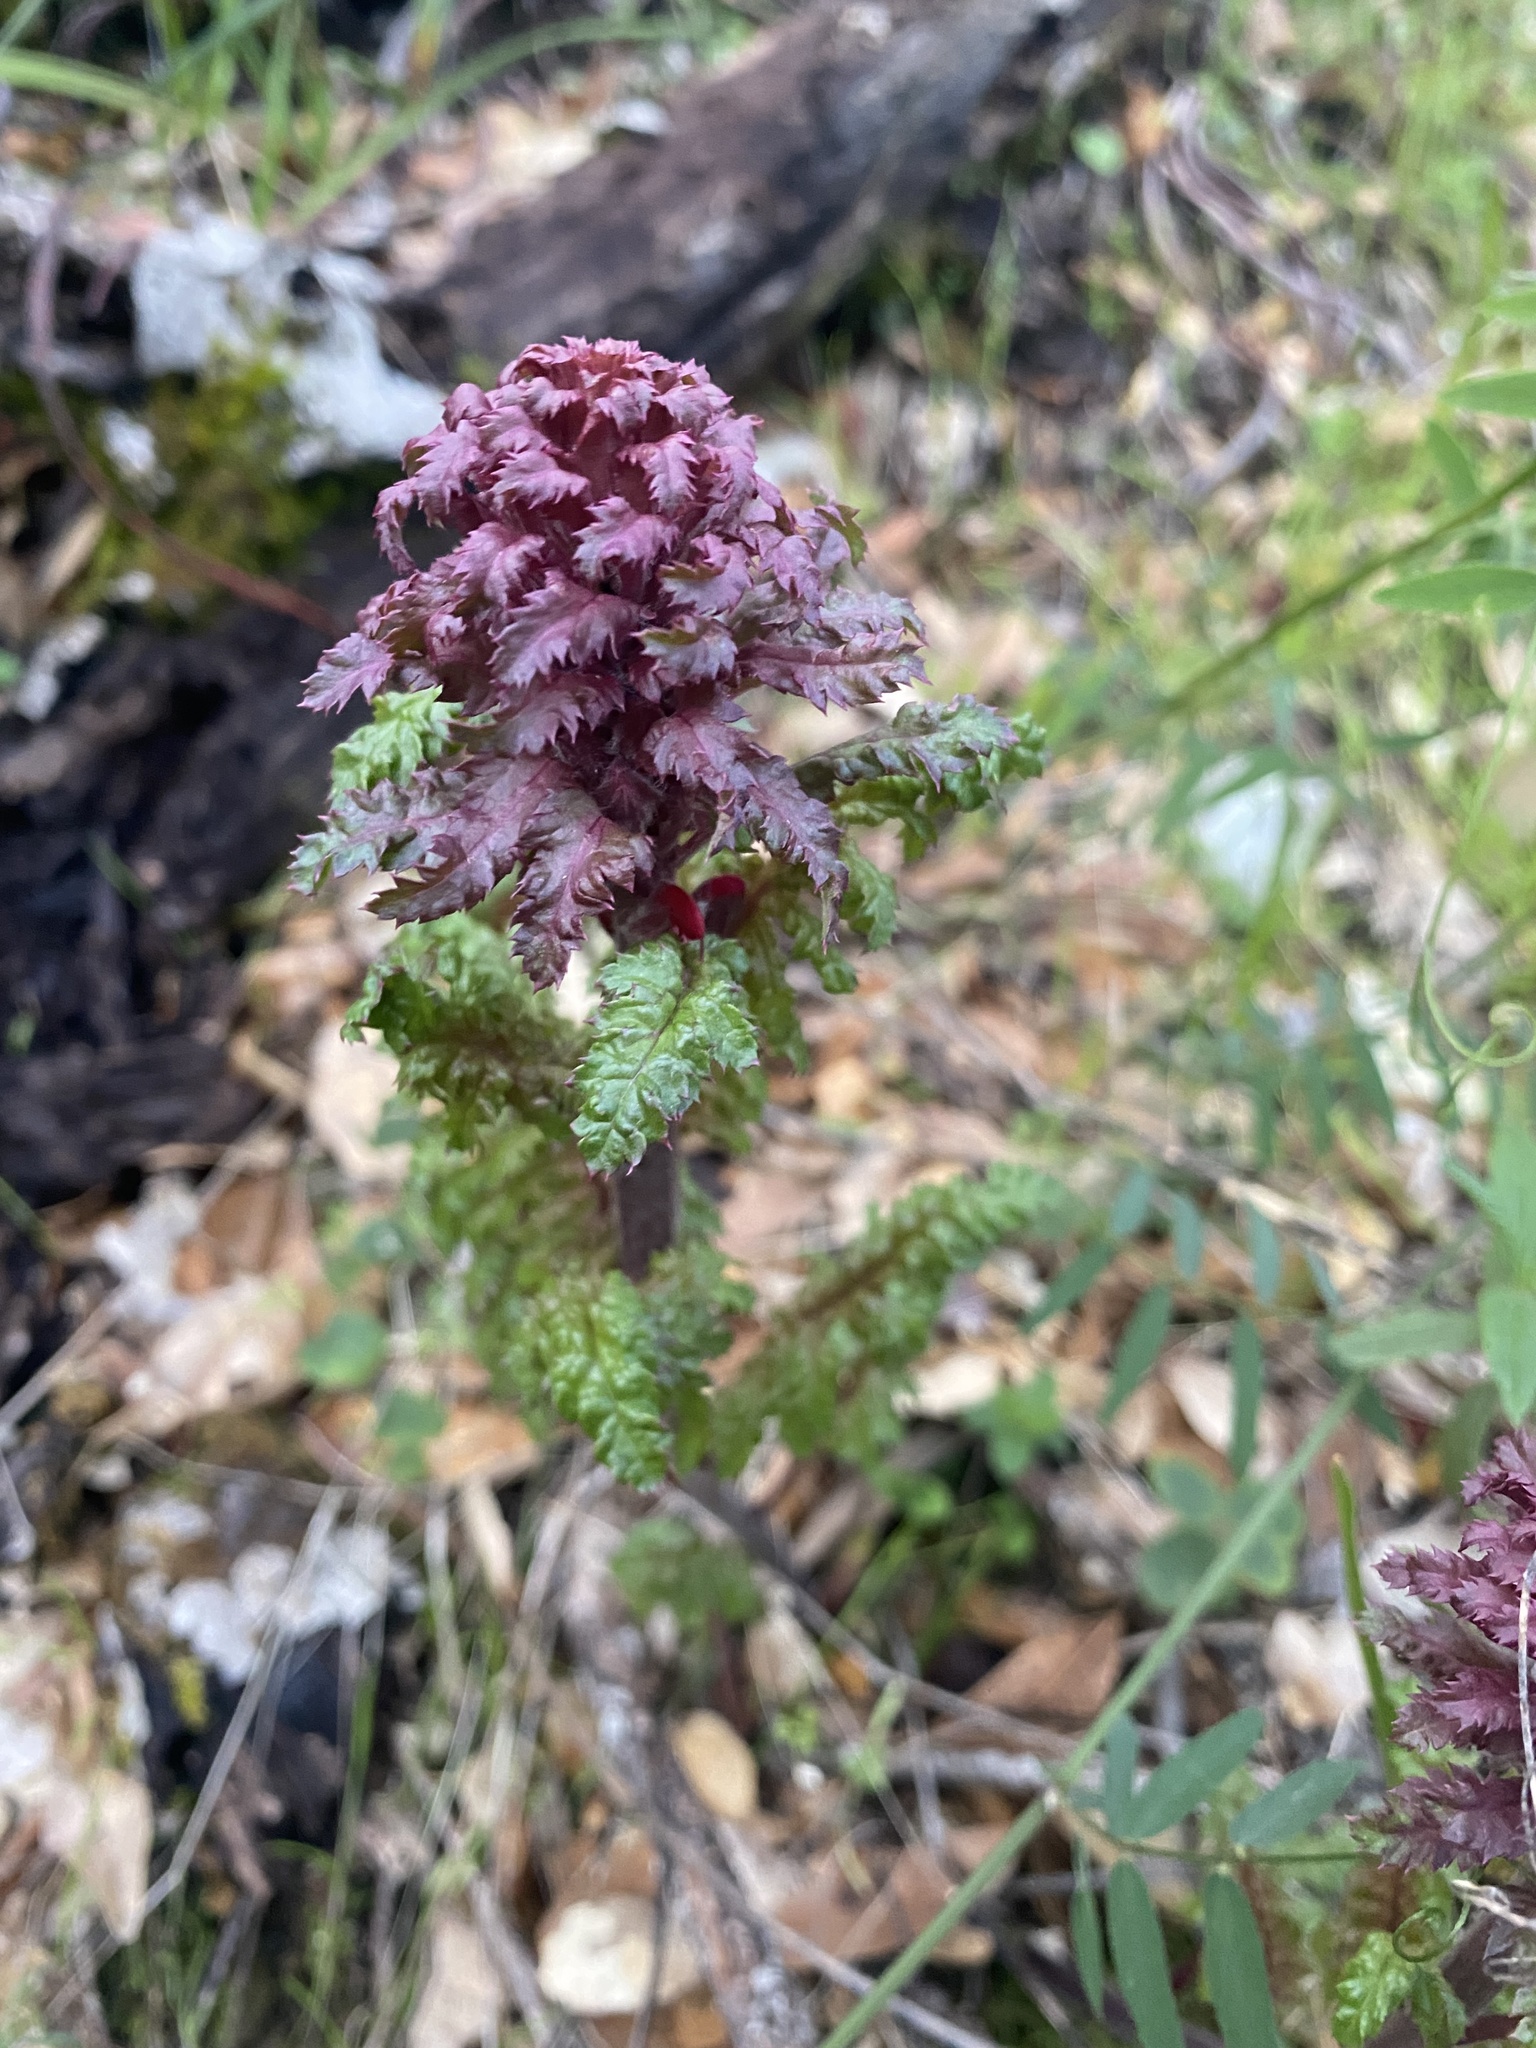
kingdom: Plantae
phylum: Tracheophyta
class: Magnoliopsida
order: Lamiales
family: Orobanchaceae
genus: Pedicularis
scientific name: Pedicularis densiflora
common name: Indian warrior
